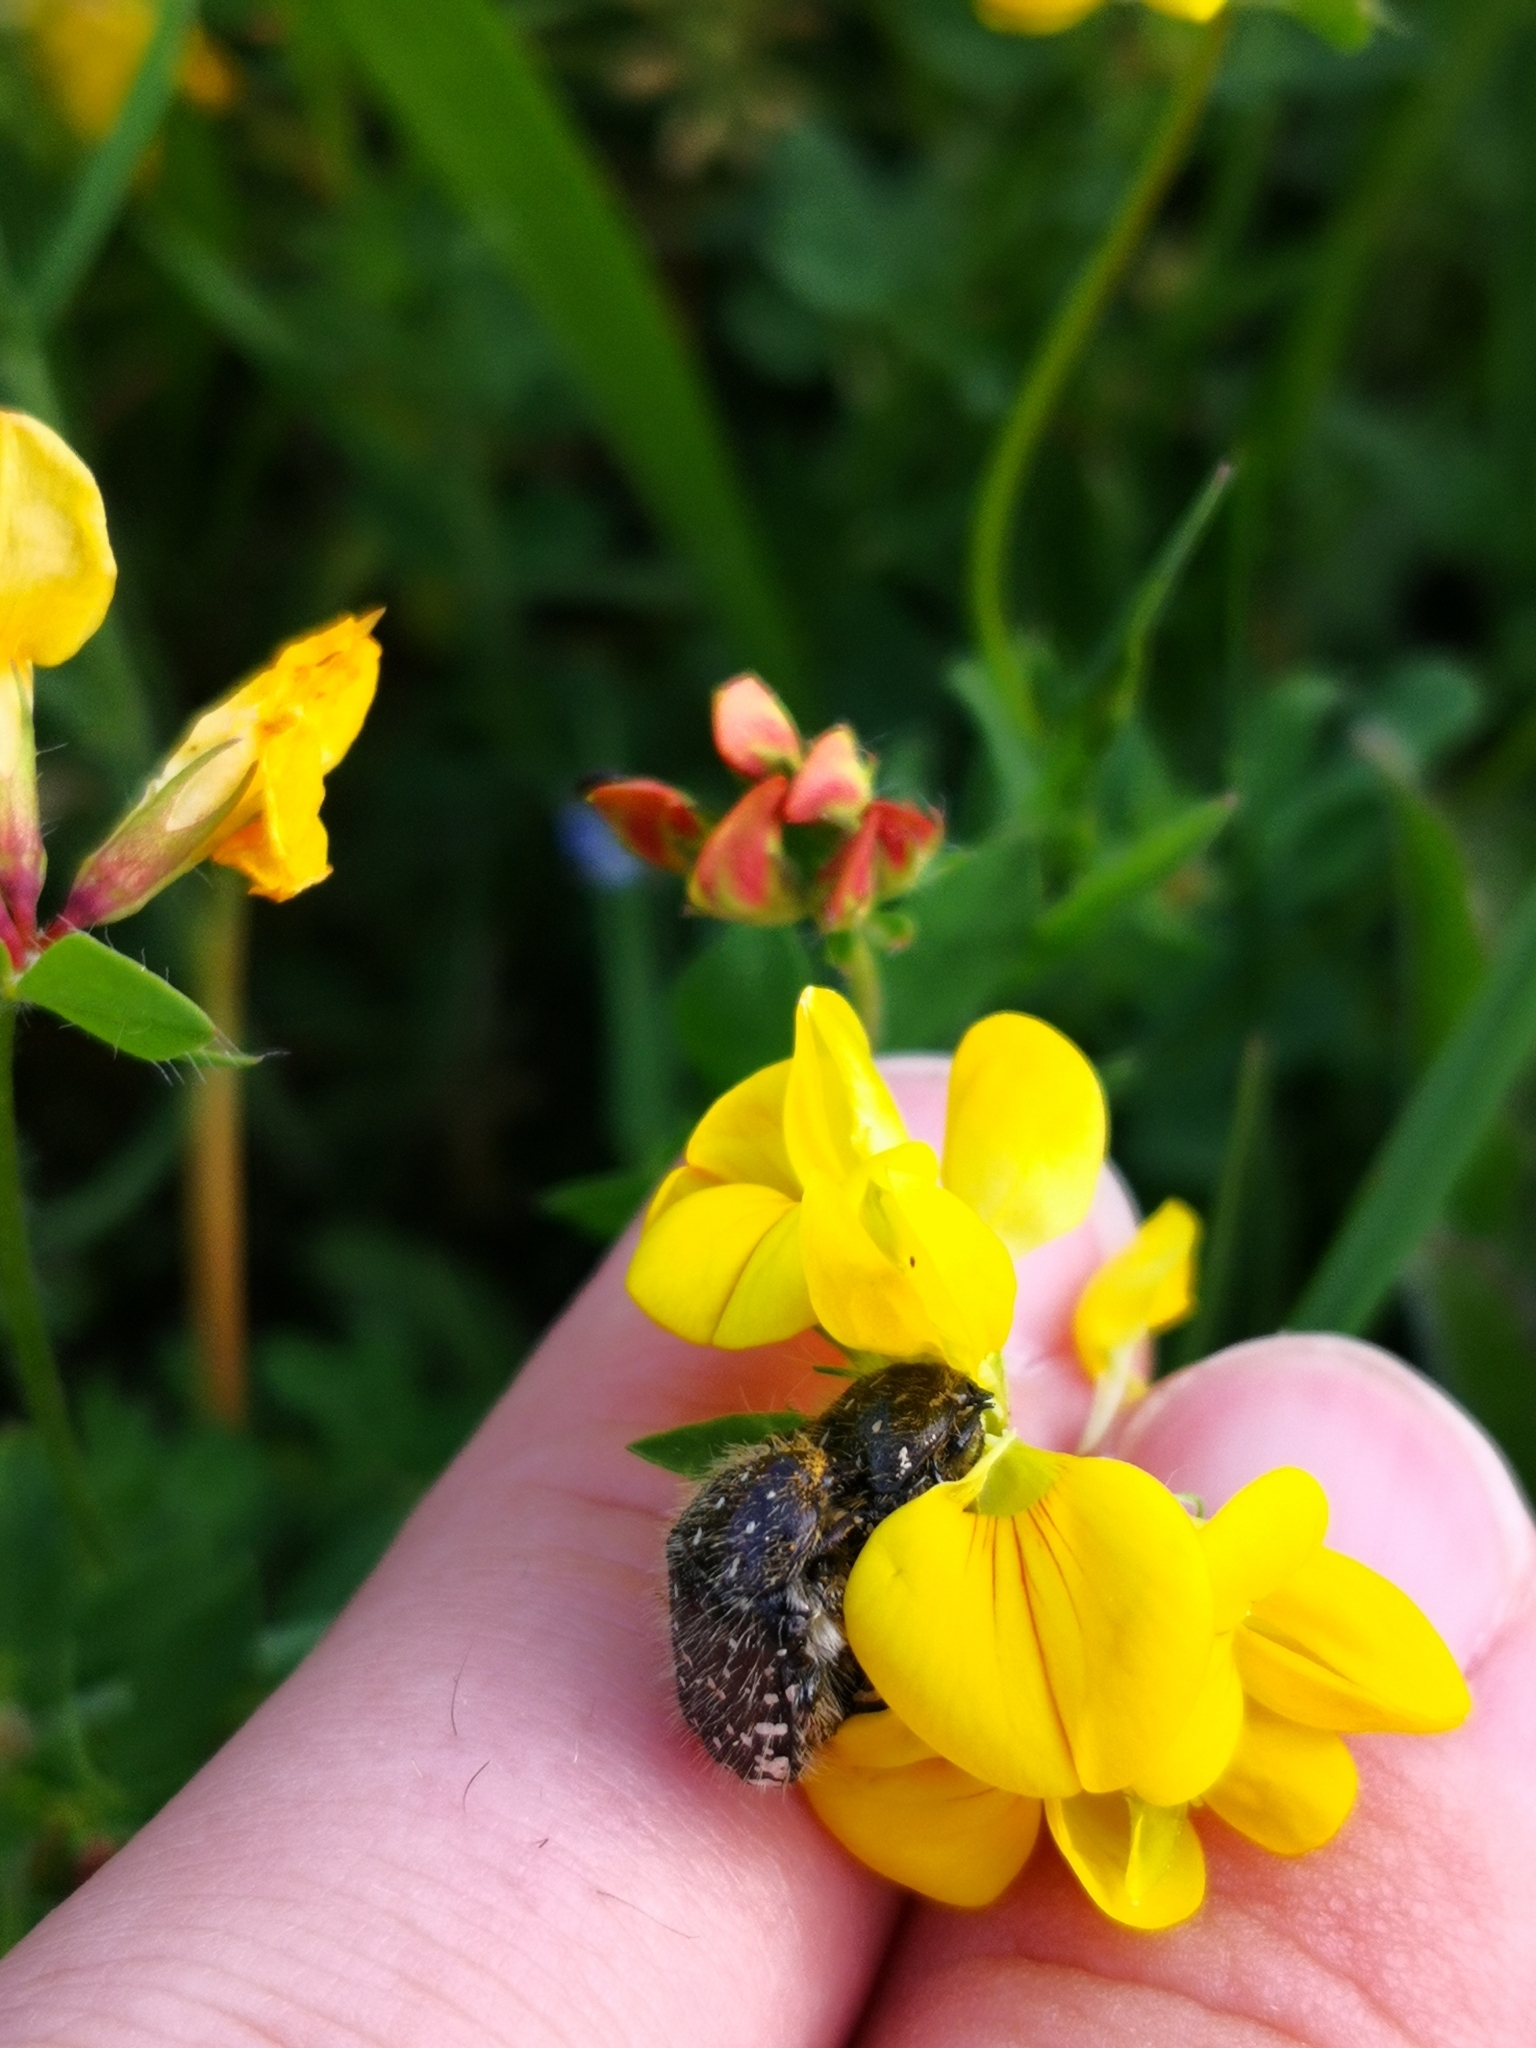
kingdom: Animalia
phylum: Arthropoda
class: Insecta
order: Coleoptera
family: Scarabaeidae
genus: Oxythyrea
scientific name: Oxythyrea funesta
